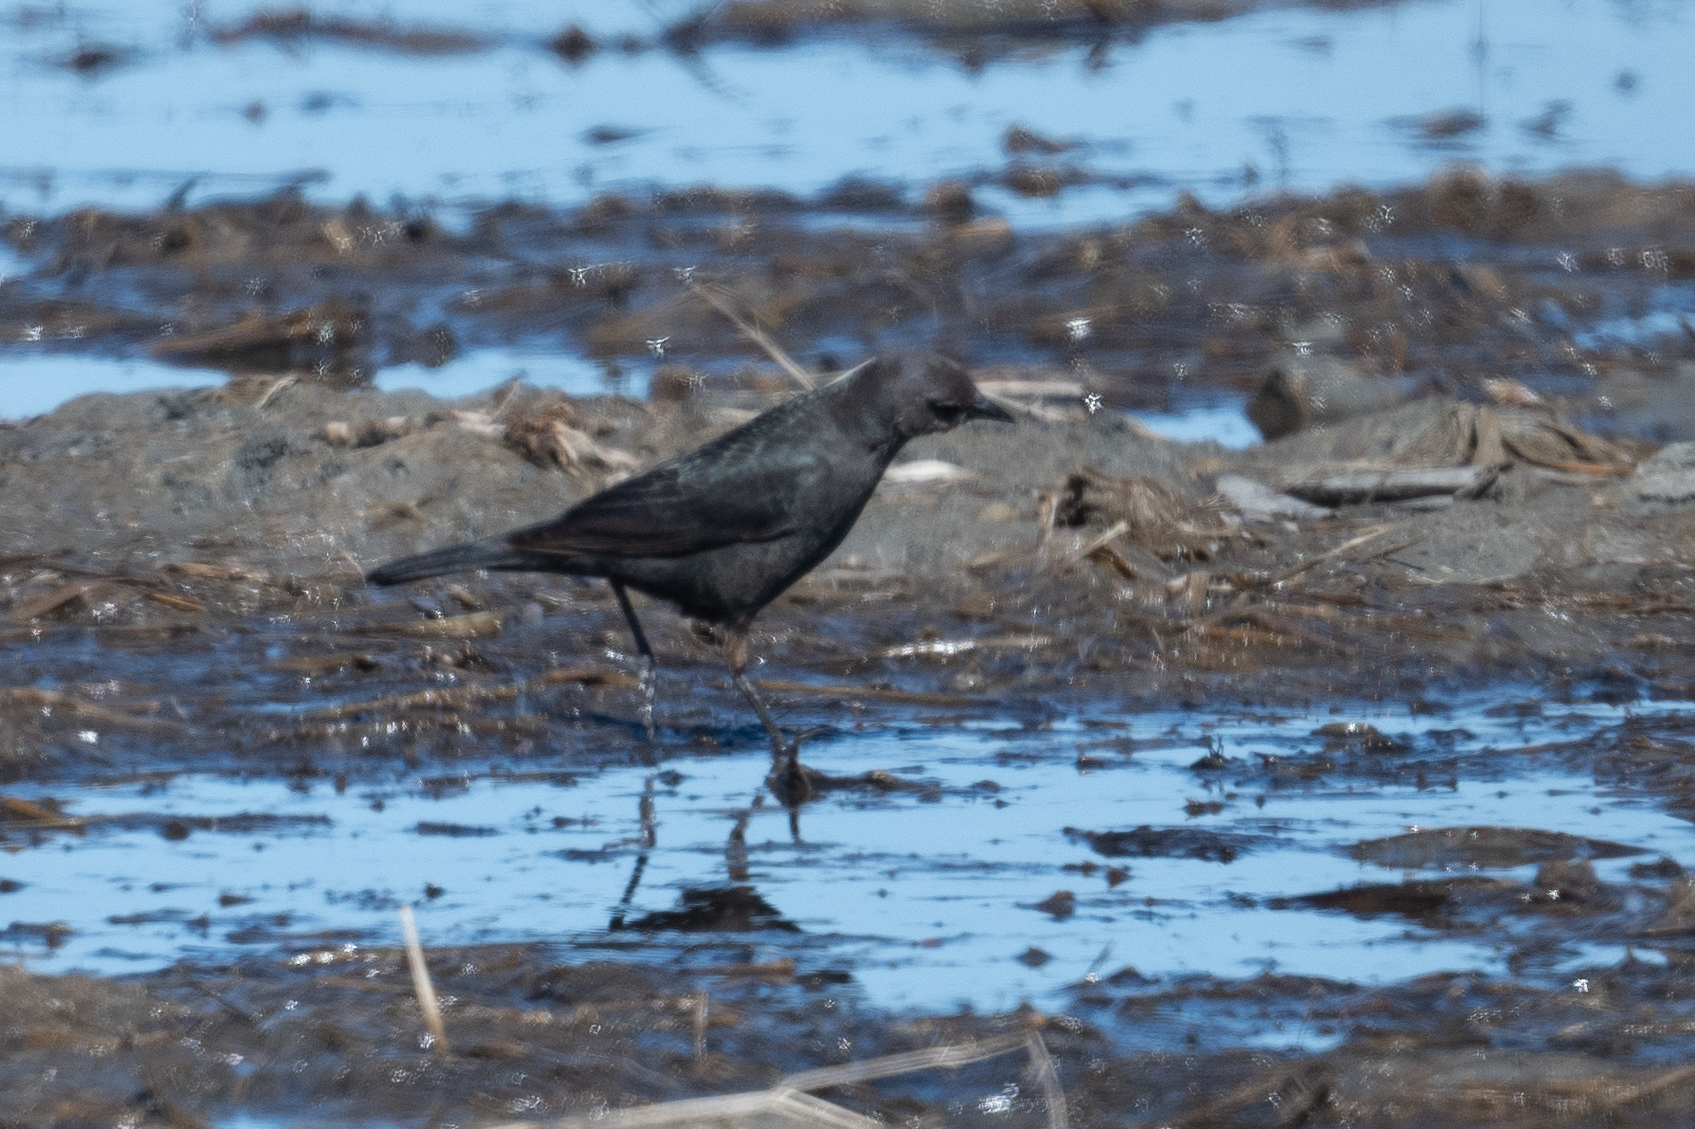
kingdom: Animalia
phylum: Chordata
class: Aves
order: Passeriformes
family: Icteridae
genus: Euphagus
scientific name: Euphagus cyanocephalus
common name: Brewer's blackbird
